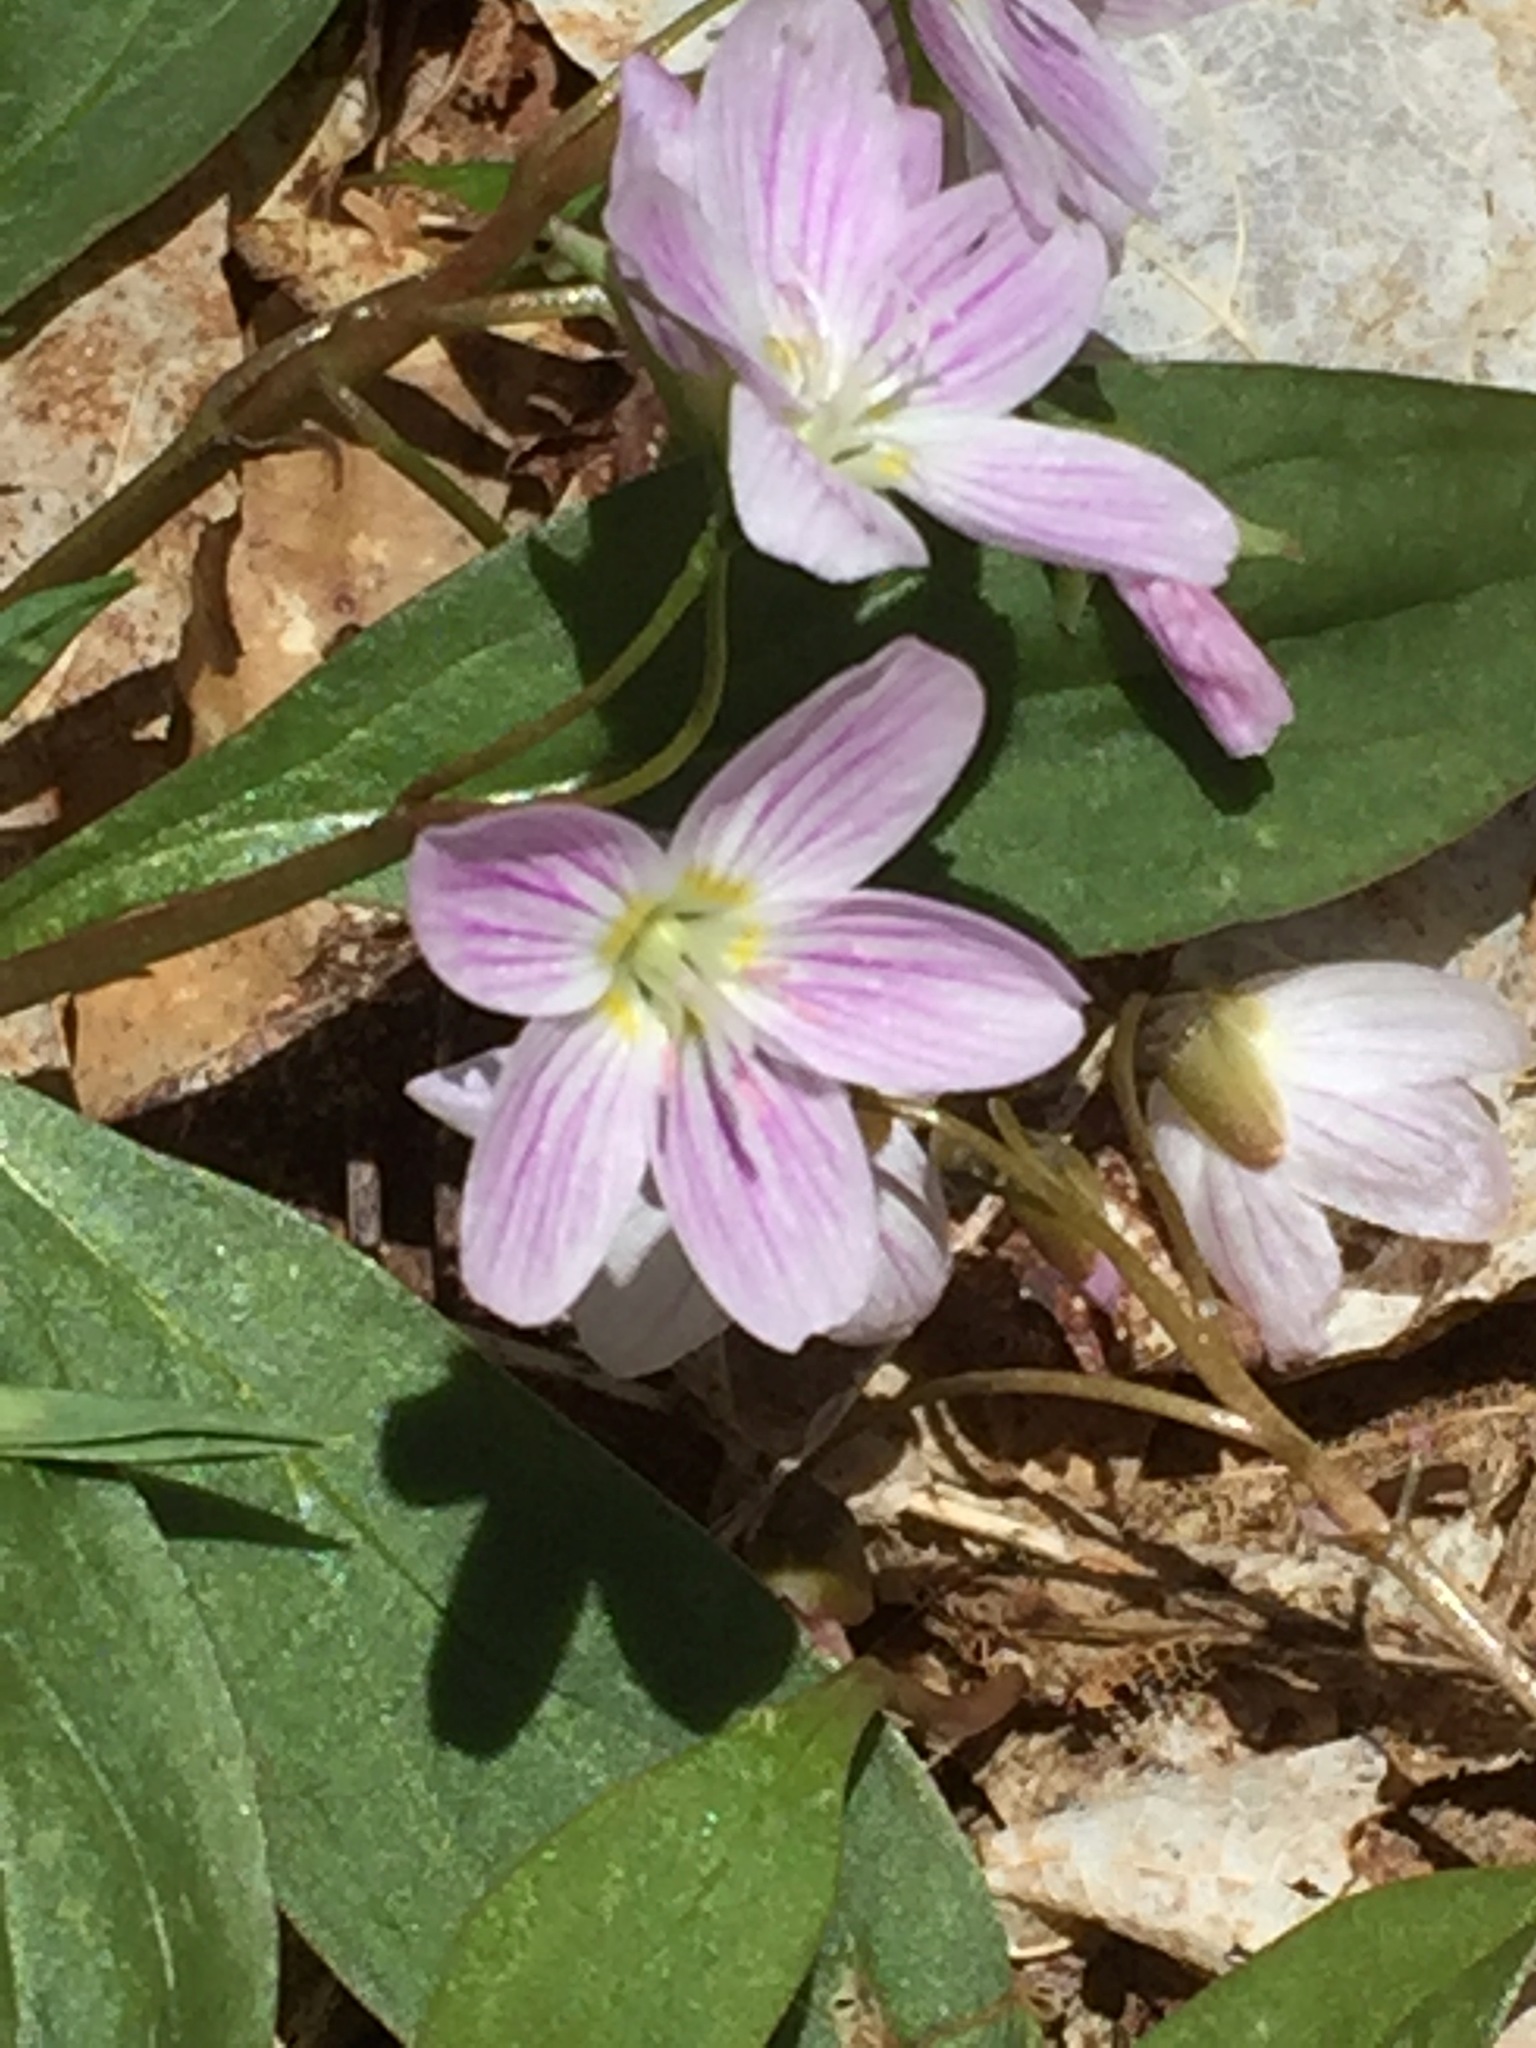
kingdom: Plantae
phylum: Tracheophyta
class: Magnoliopsida
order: Caryophyllales
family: Montiaceae
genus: Claytonia
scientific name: Claytonia caroliniana
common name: Carolina spring beauty
